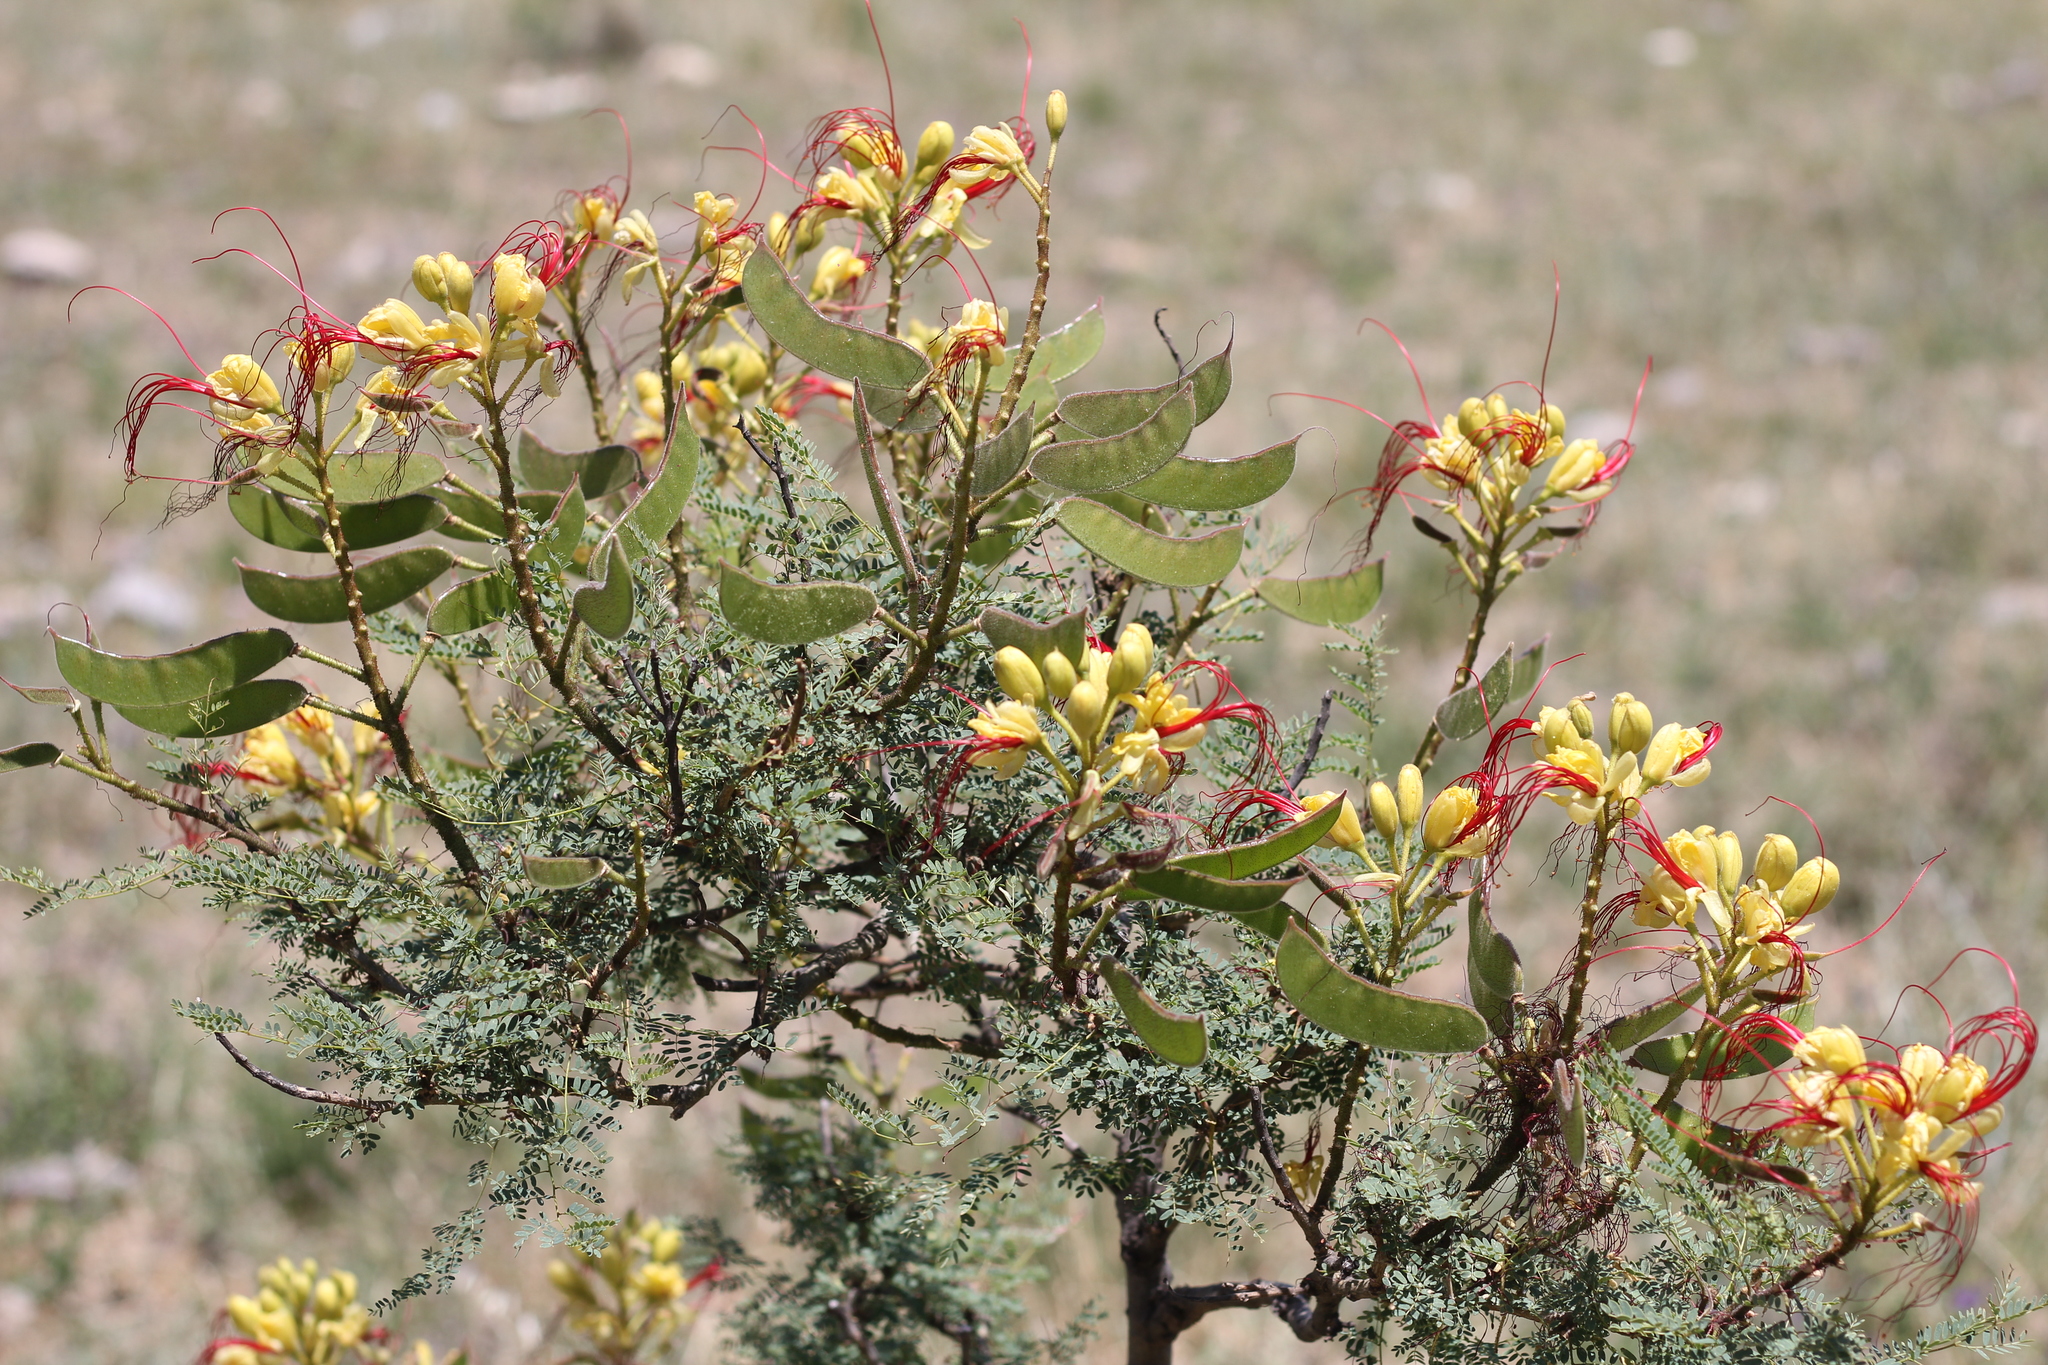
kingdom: Plantae
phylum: Tracheophyta
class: Magnoliopsida
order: Fabales
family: Fabaceae
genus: Erythrostemon
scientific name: Erythrostemon gilliesii
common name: Bird-of-paradise shrub
